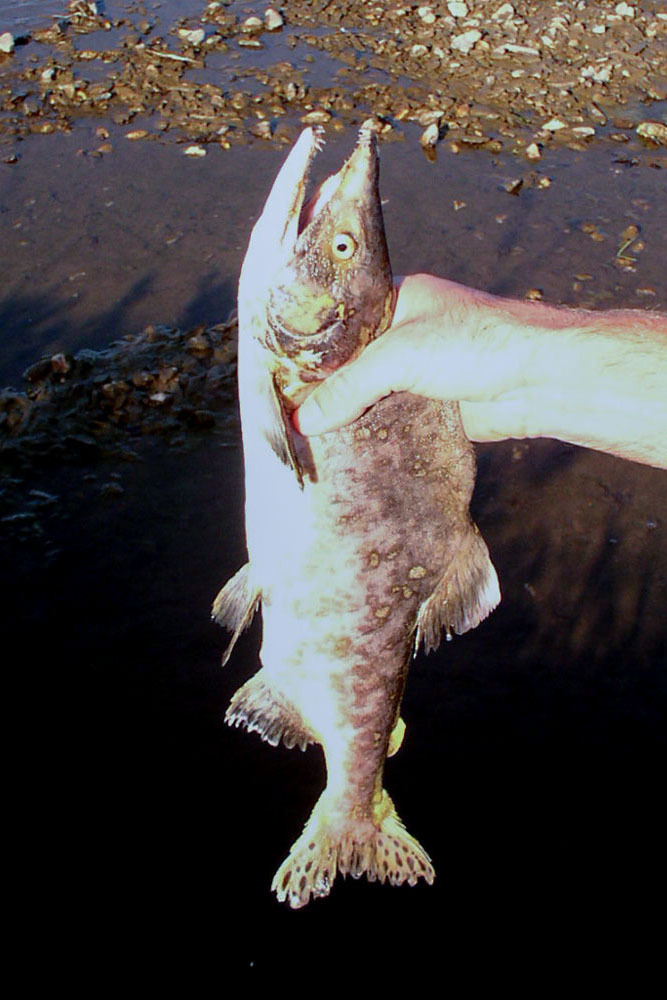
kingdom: Animalia
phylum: Chordata
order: Salmoniformes
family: Salmonidae
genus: Oncorhynchus
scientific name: Oncorhynchus gorbuscha
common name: Humpback salmon
